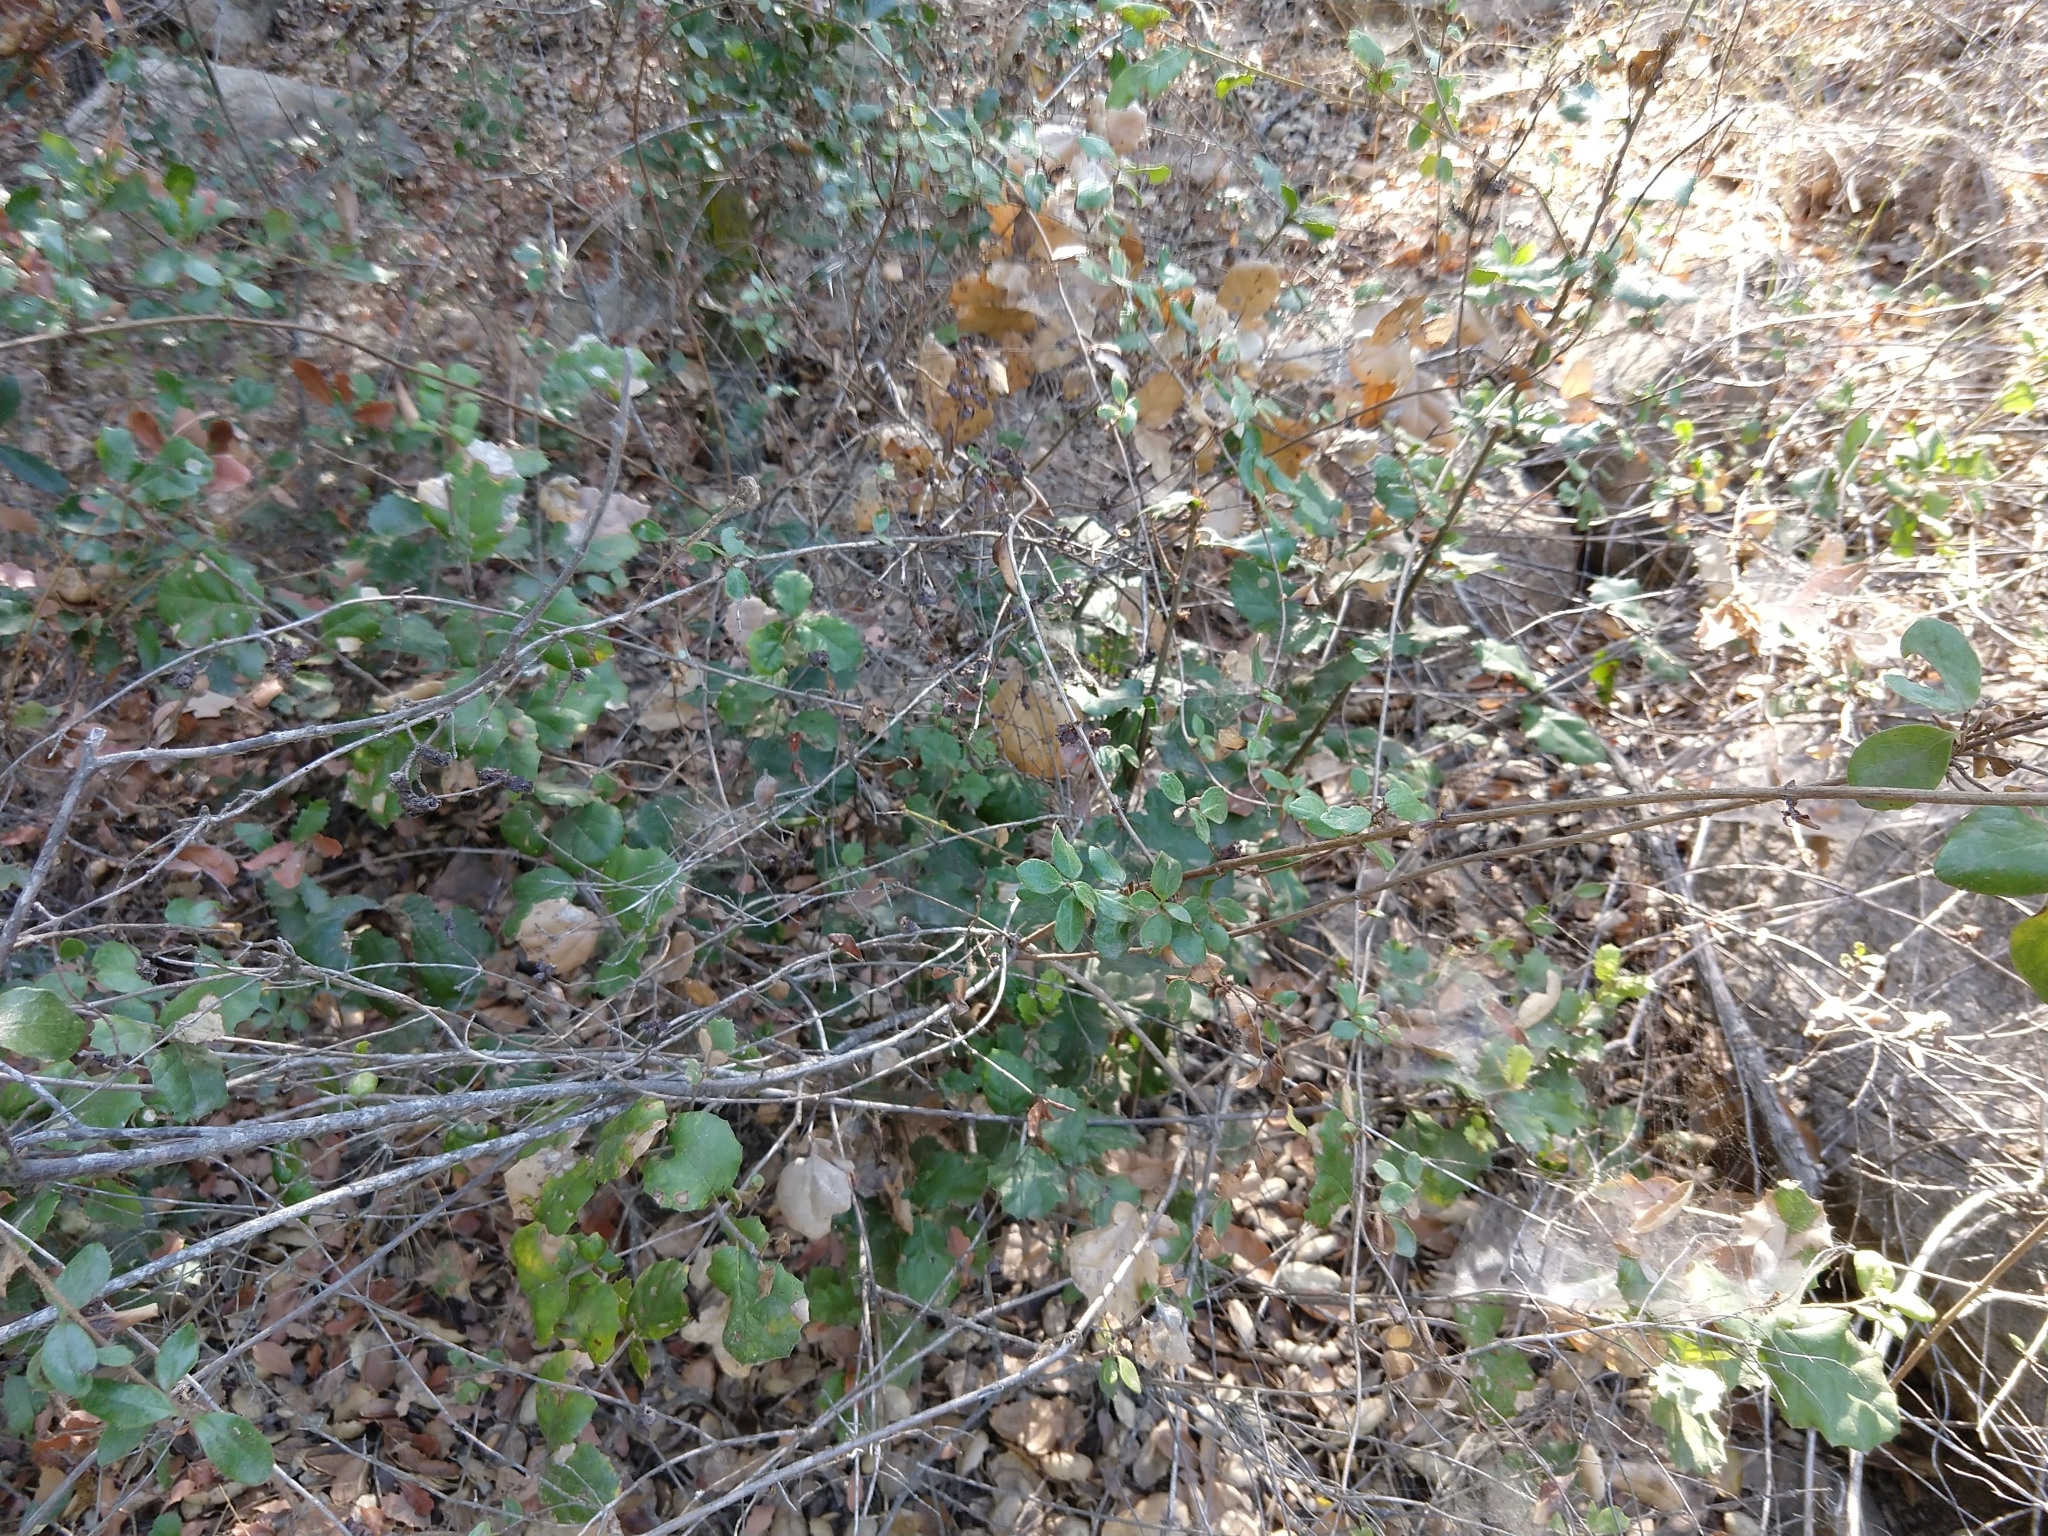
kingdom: Plantae
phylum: Tracheophyta
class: Magnoliopsida
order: Dipsacales
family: Caprifoliaceae
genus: Lonicera
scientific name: Lonicera subspicata
